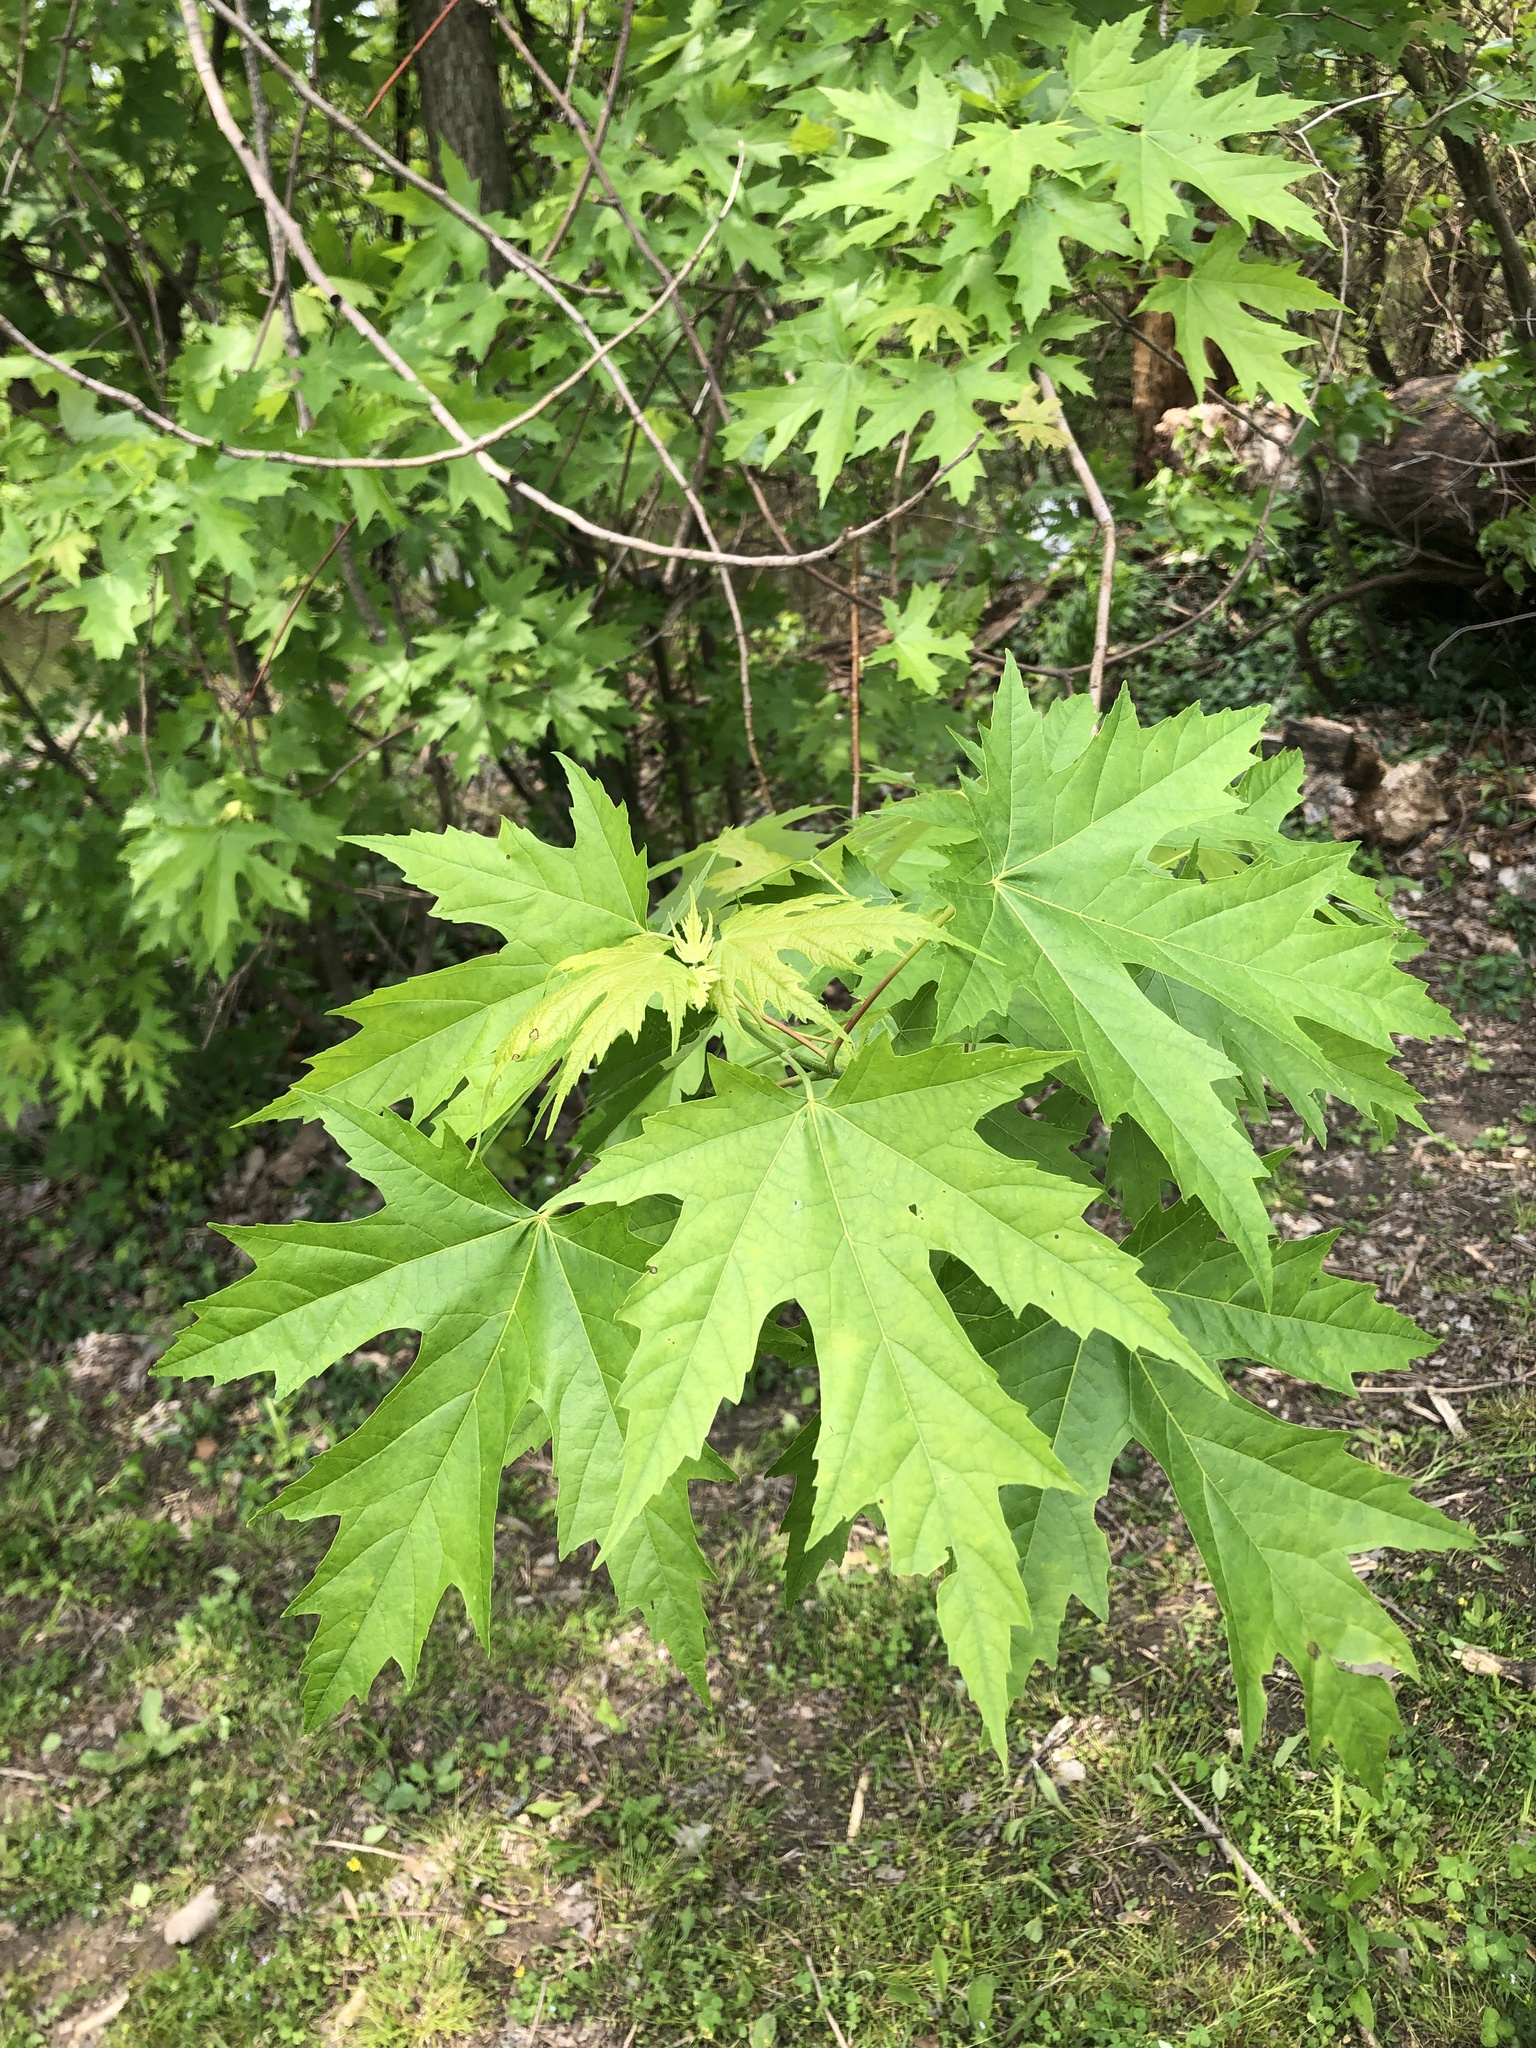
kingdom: Plantae
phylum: Tracheophyta
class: Magnoliopsida
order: Sapindales
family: Sapindaceae
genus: Acer
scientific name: Acer saccharinum
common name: Silver maple
